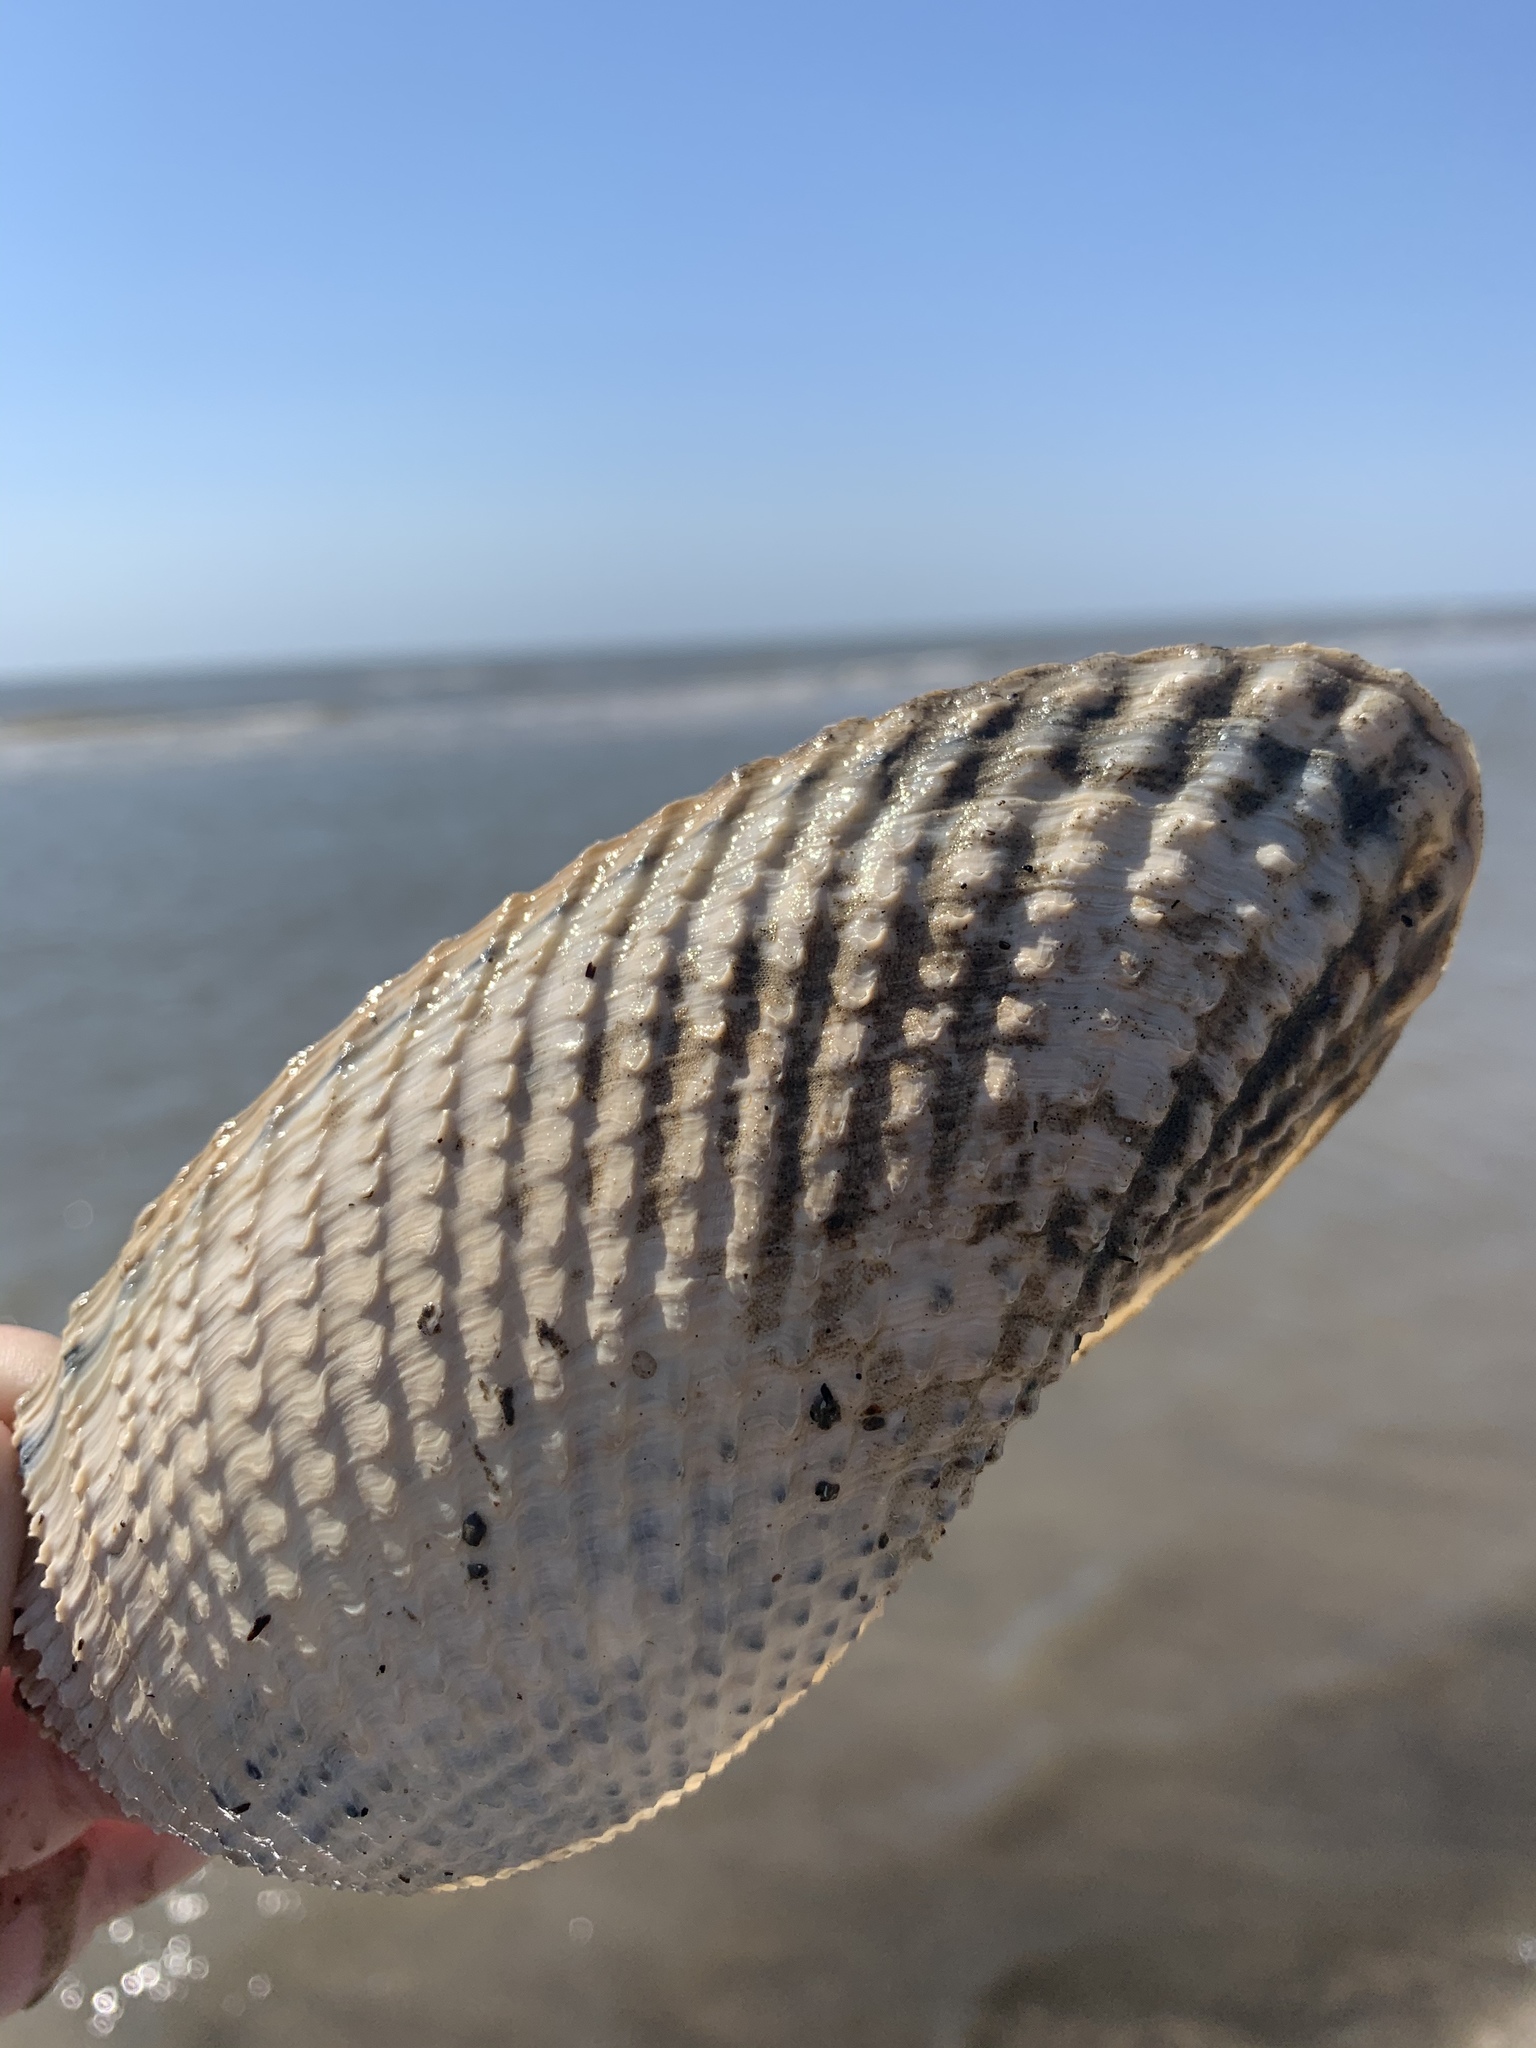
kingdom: Animalia
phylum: Mollusca
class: Bivalvia
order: Myida
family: Pholadidae
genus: Cyrtopleura
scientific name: Cyrtopleura costata
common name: Angel wing
